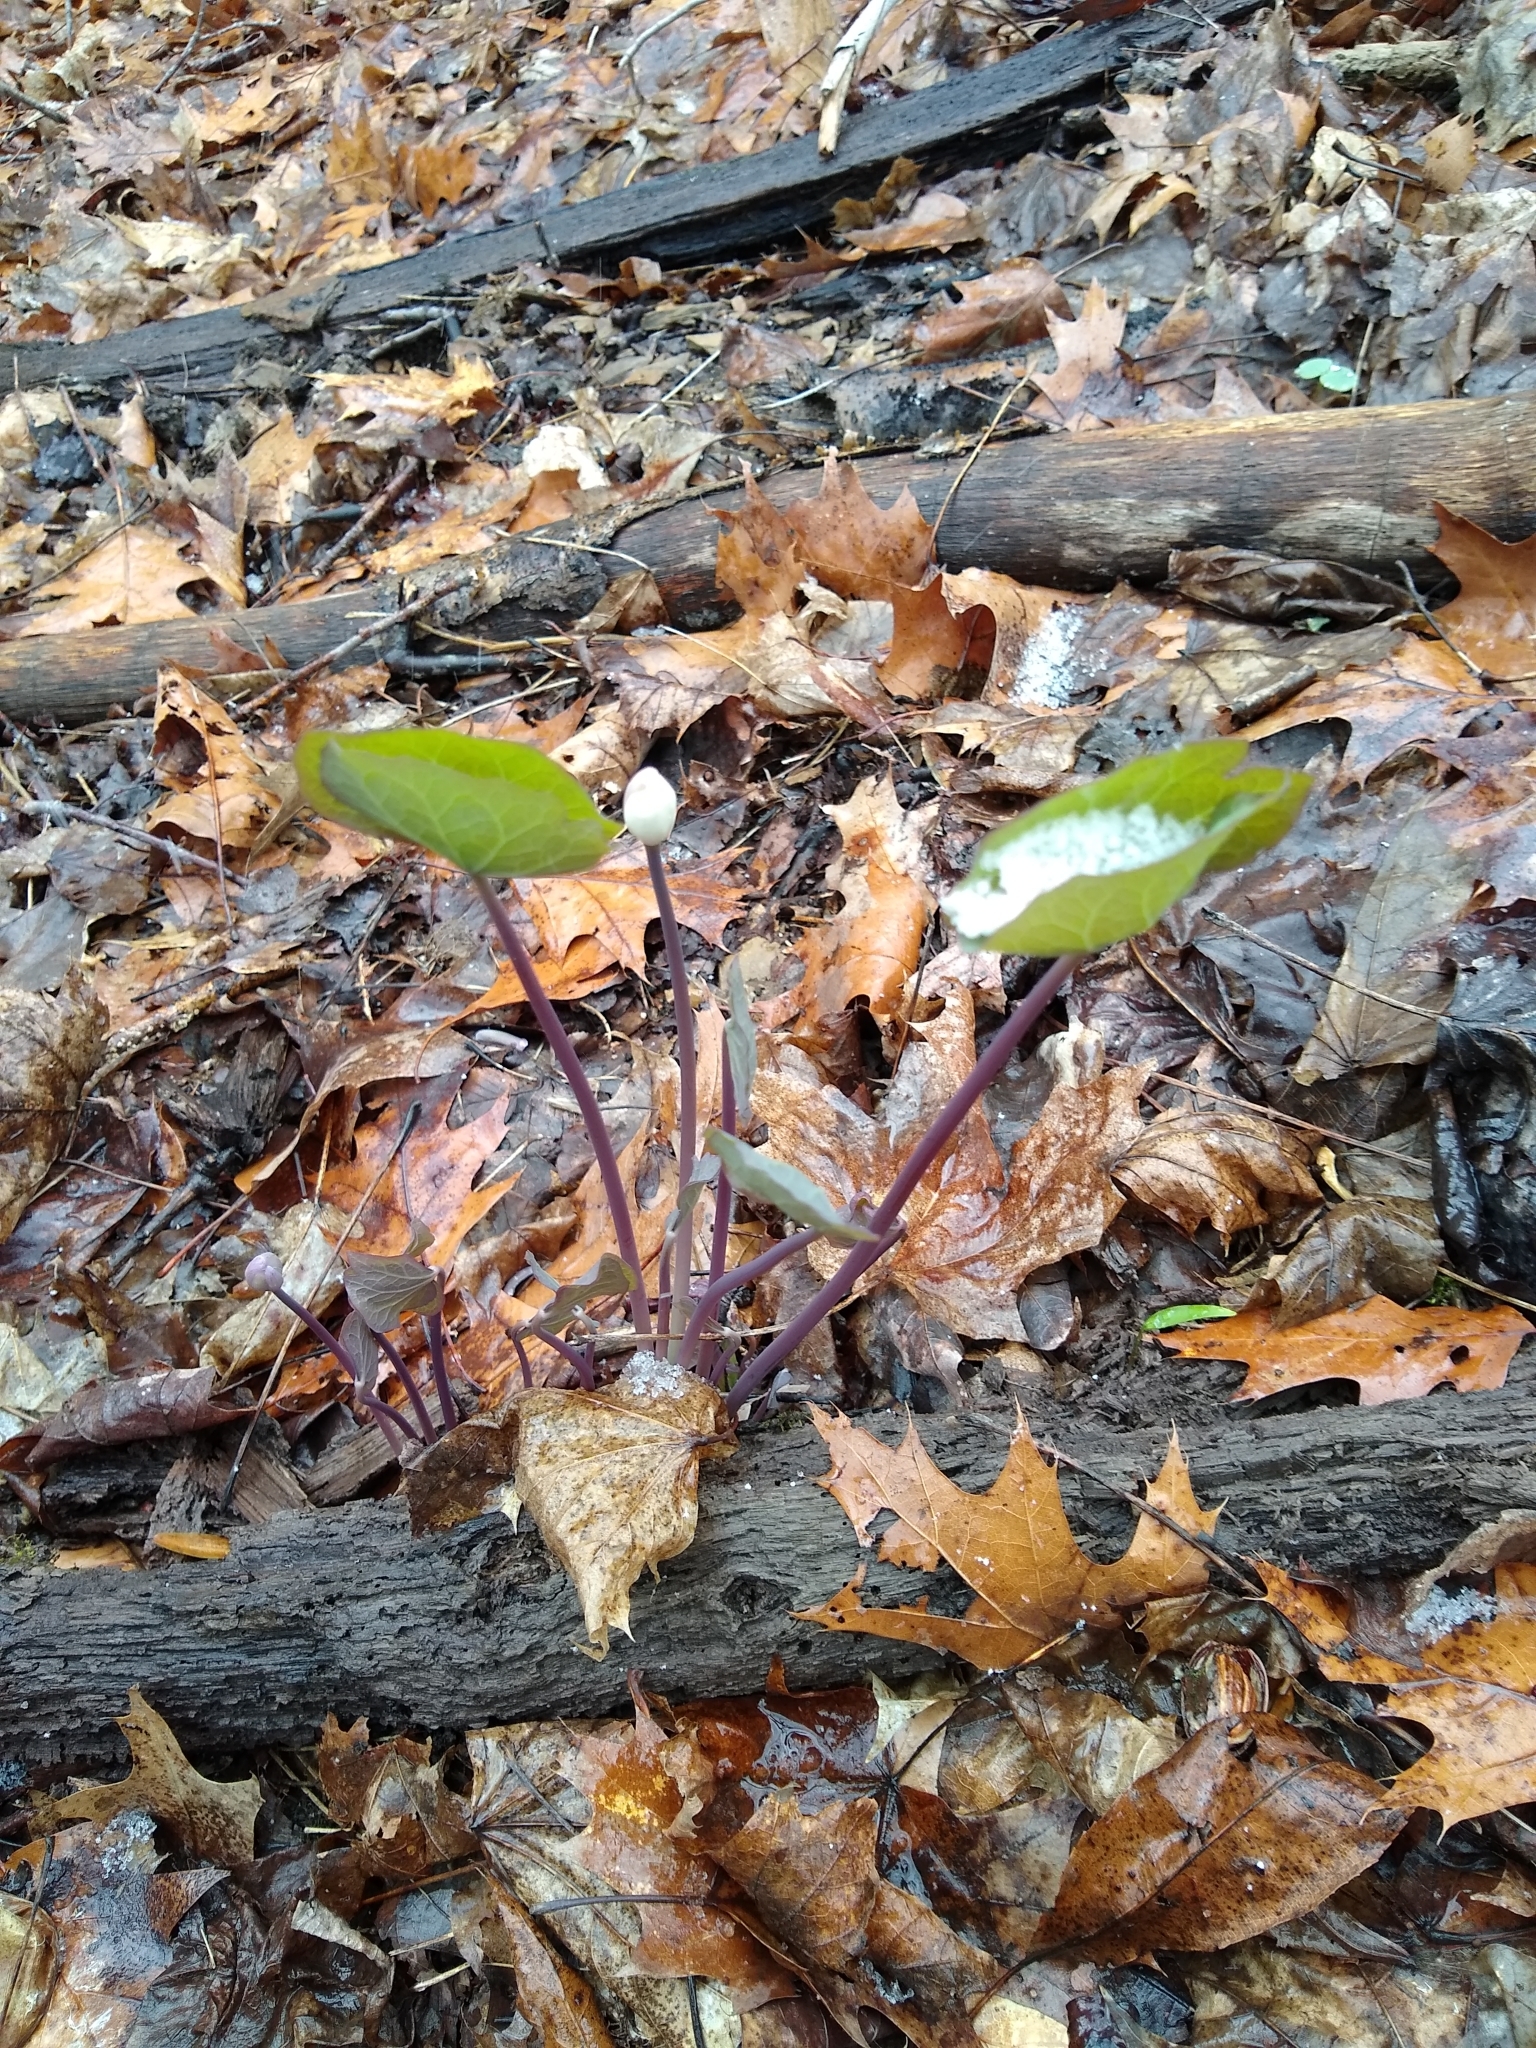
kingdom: Plantae
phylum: Tracheophyta
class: Magnoliopsida
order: Ranunculales
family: Berberidaceae
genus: Jeffersonia
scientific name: Jeffersonia diphylla
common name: Rheumatism-root
